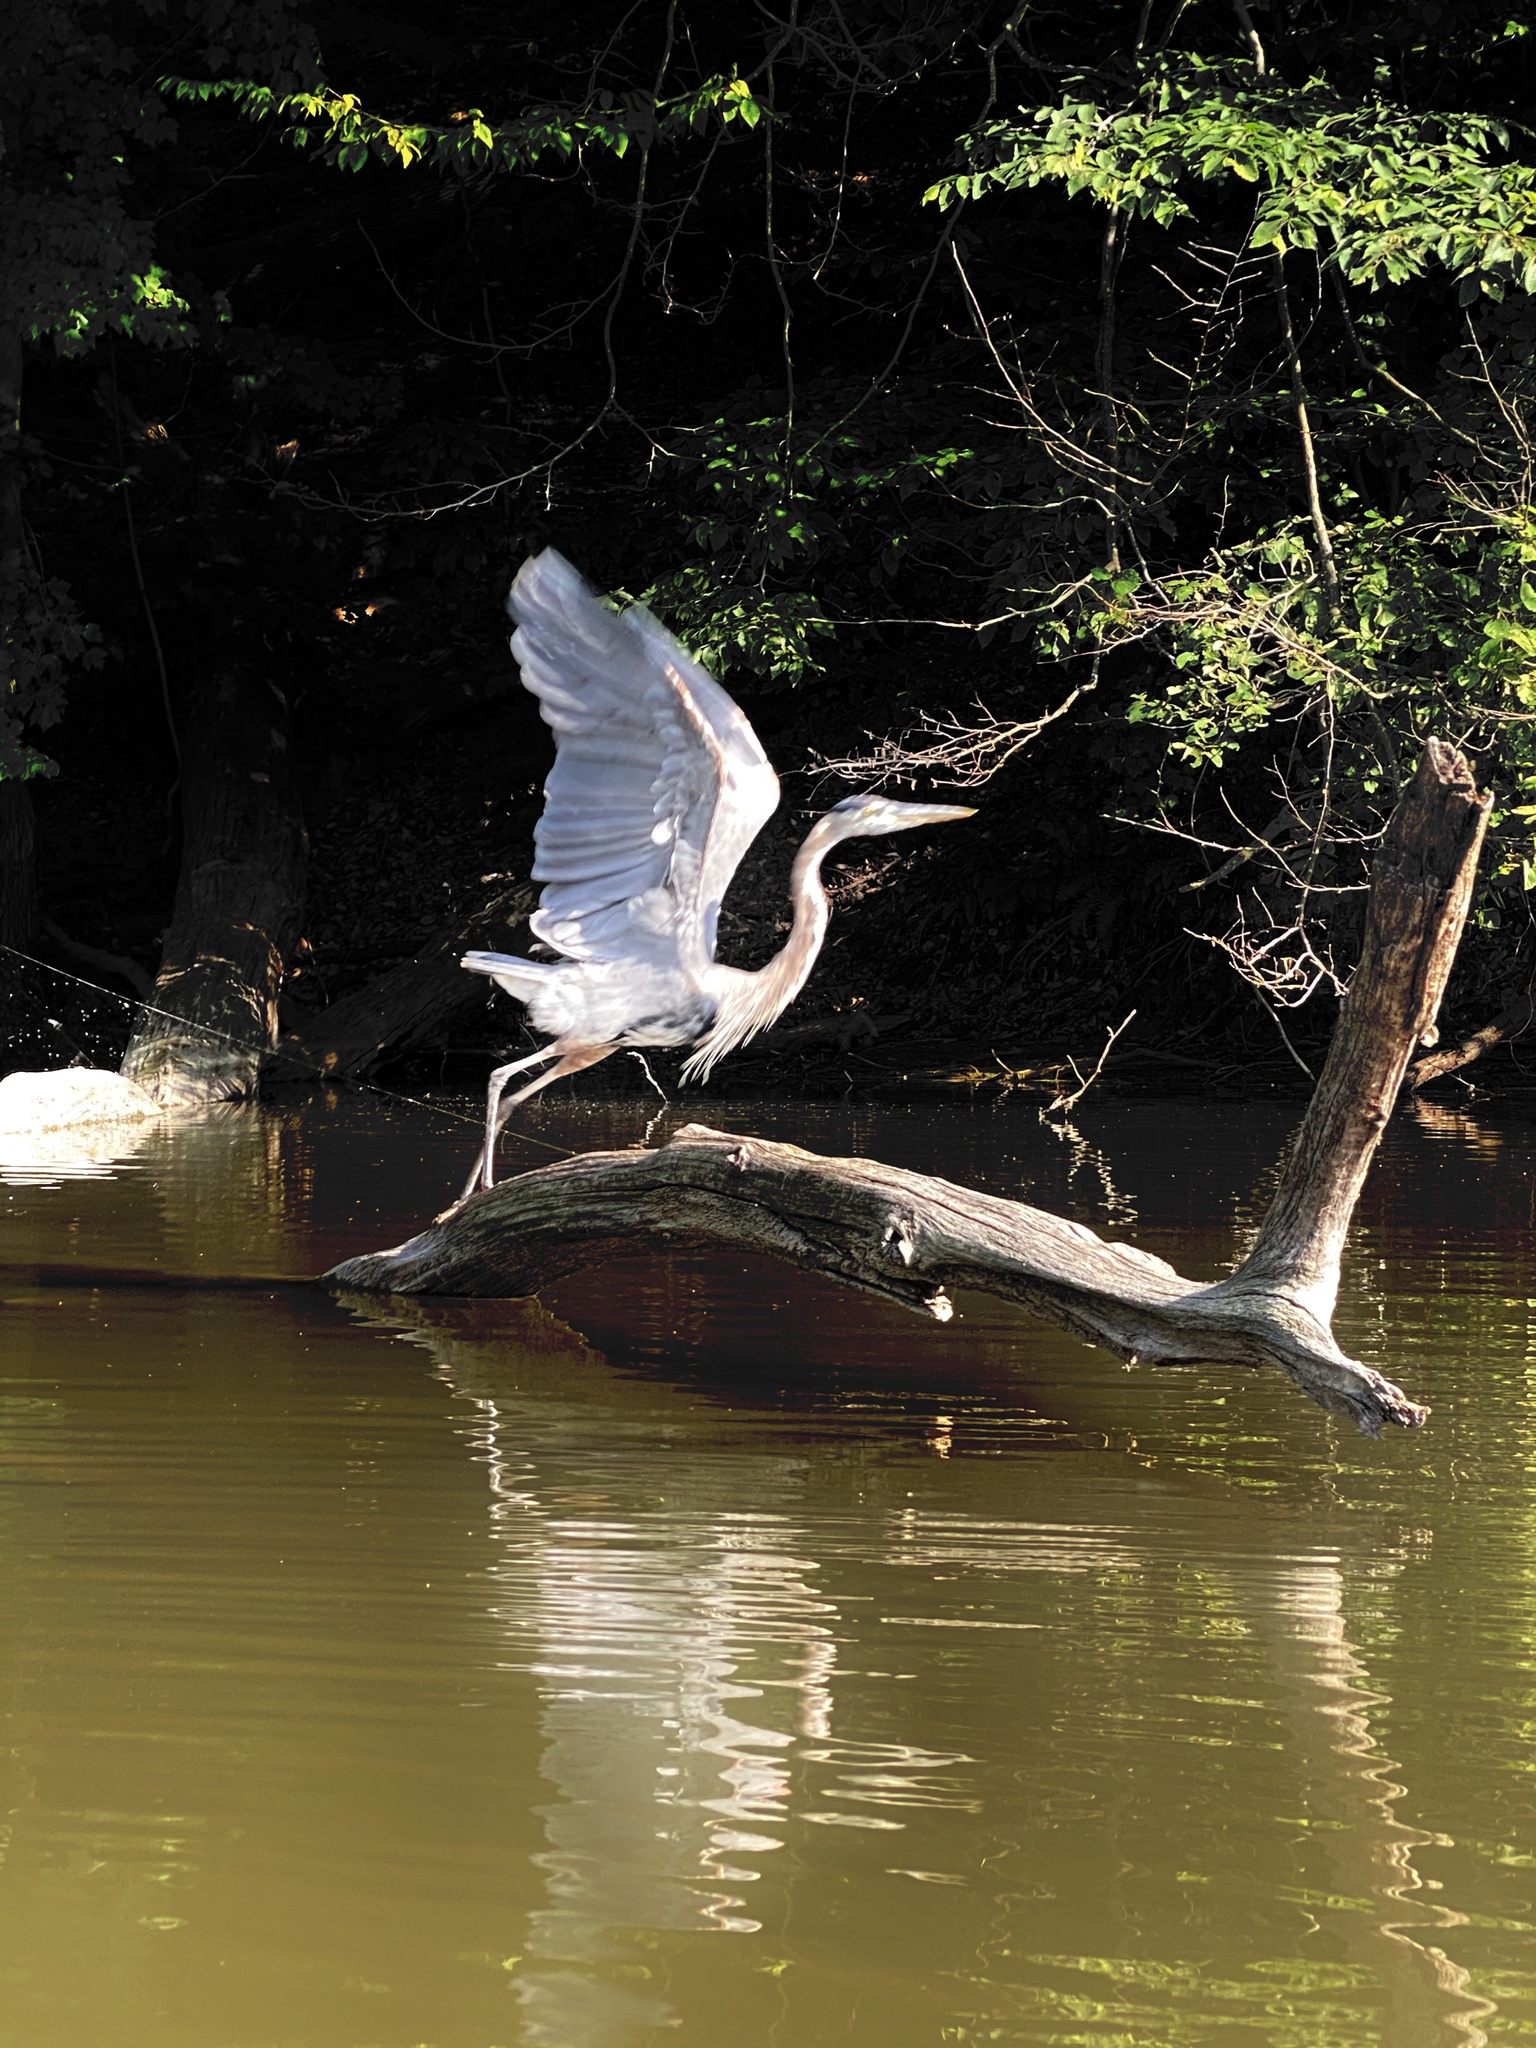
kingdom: Animalia
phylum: Chordata
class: Aves
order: Pelecaniformes
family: Ardeidae
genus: Ardea
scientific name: Ardea herodias
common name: Great blue heron
